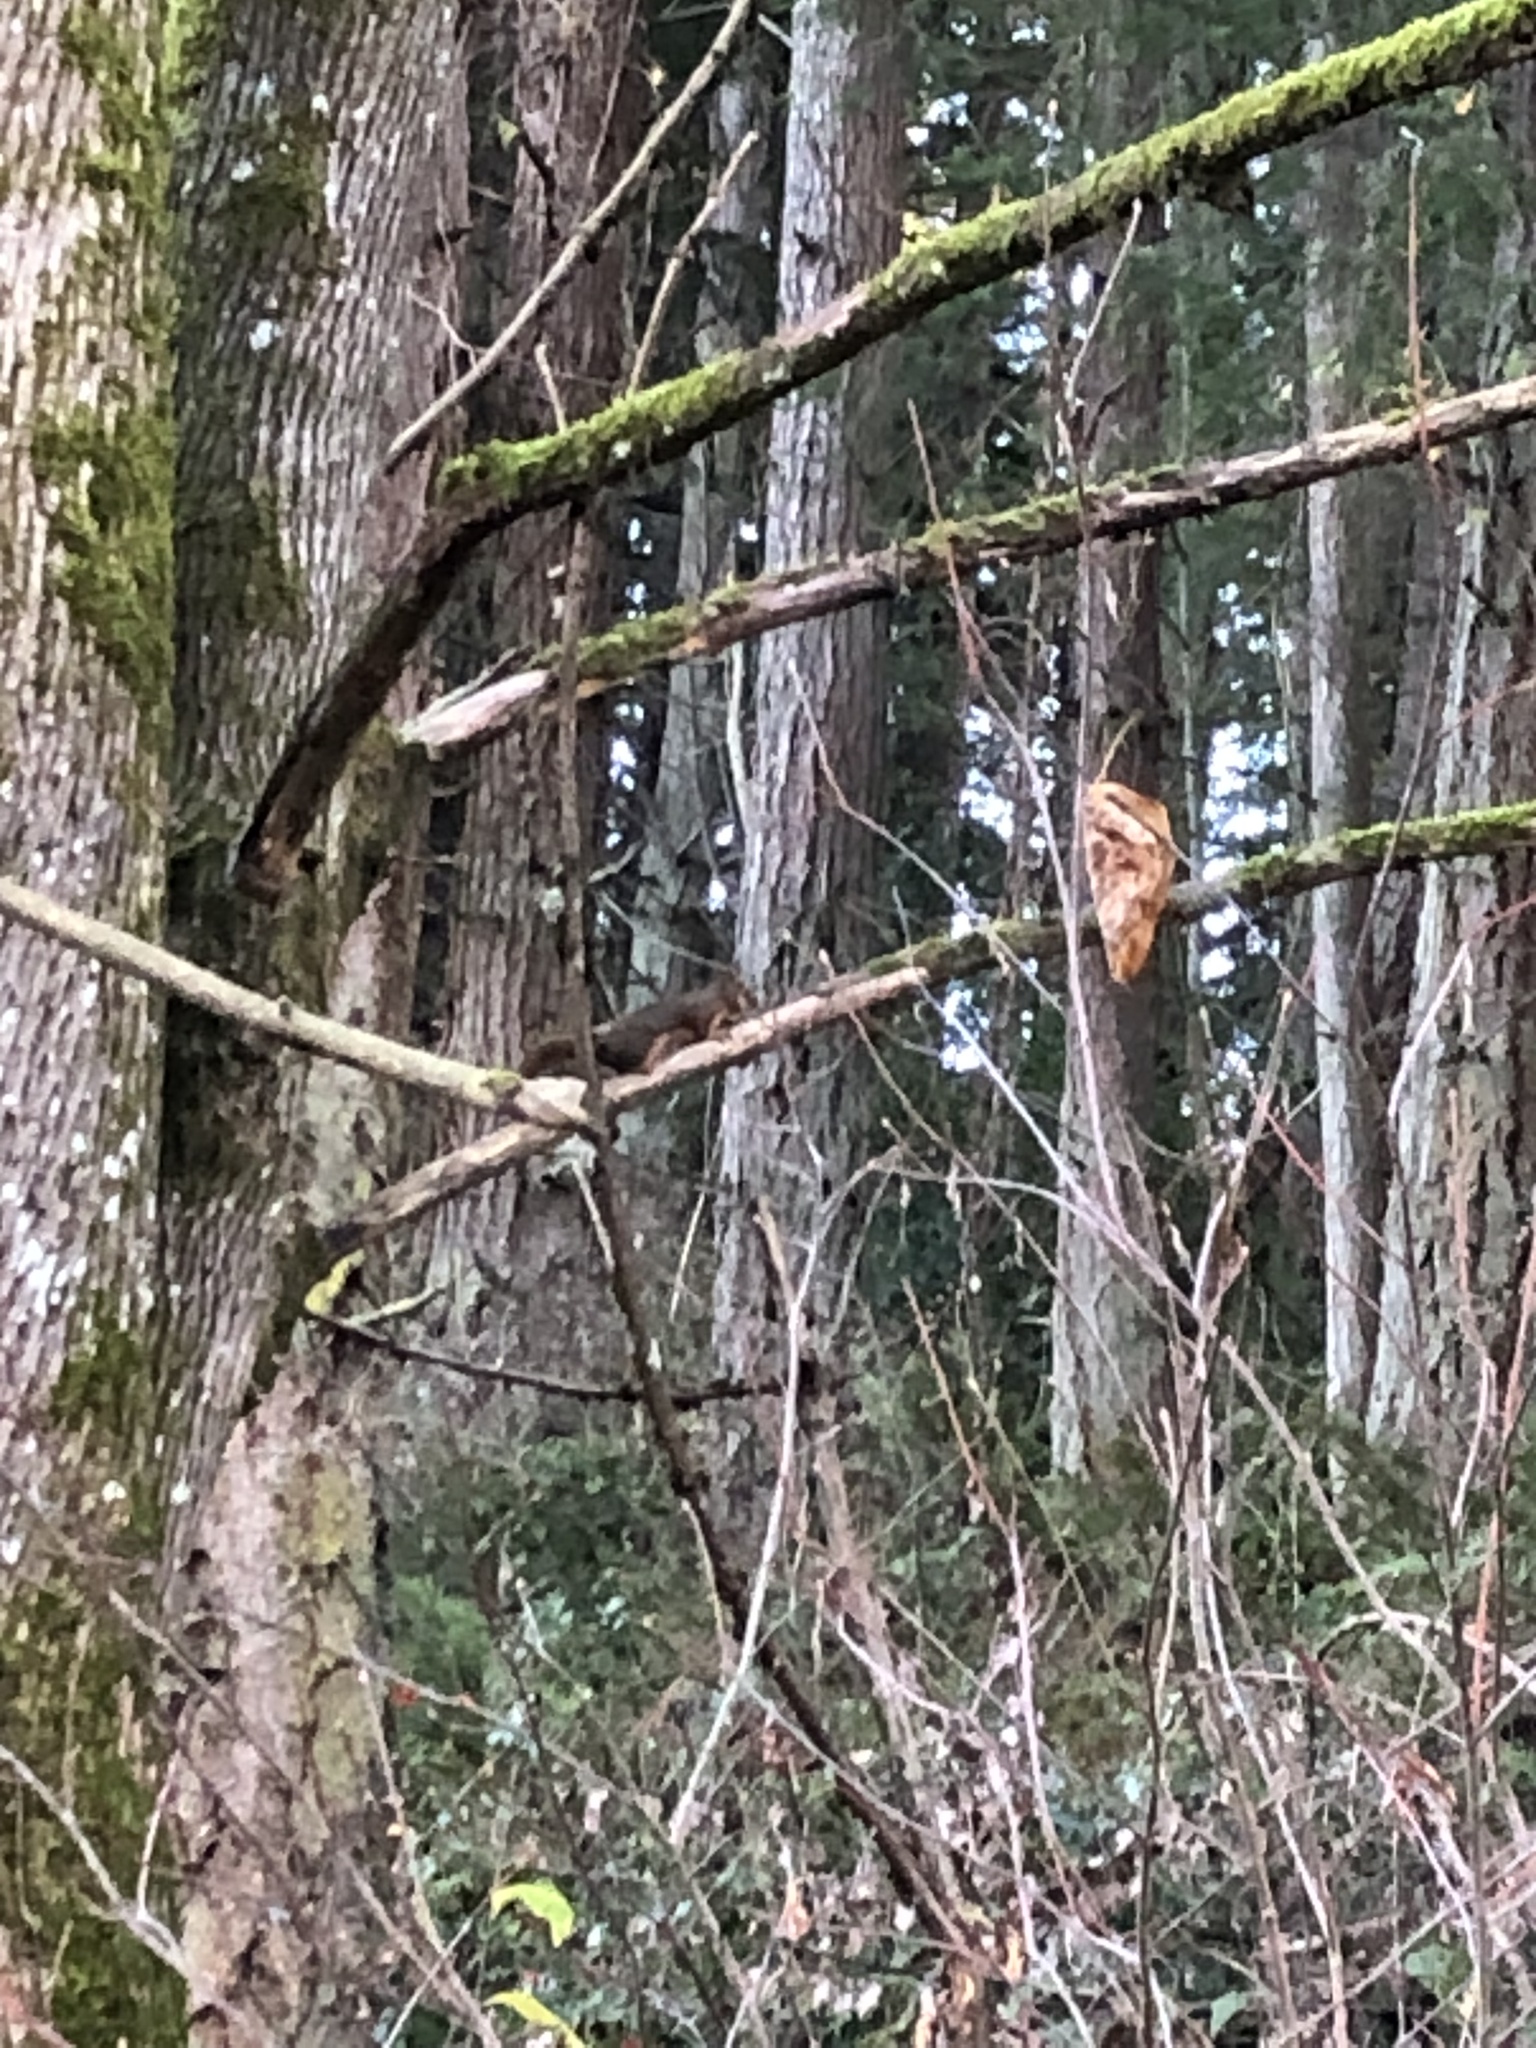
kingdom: Animalia
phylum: Chordata
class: Mammalia
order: Rodentia
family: Sciuridae
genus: Tamiasciurus
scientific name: Tamiasciurus douglasii
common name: Douglas's squirrel
